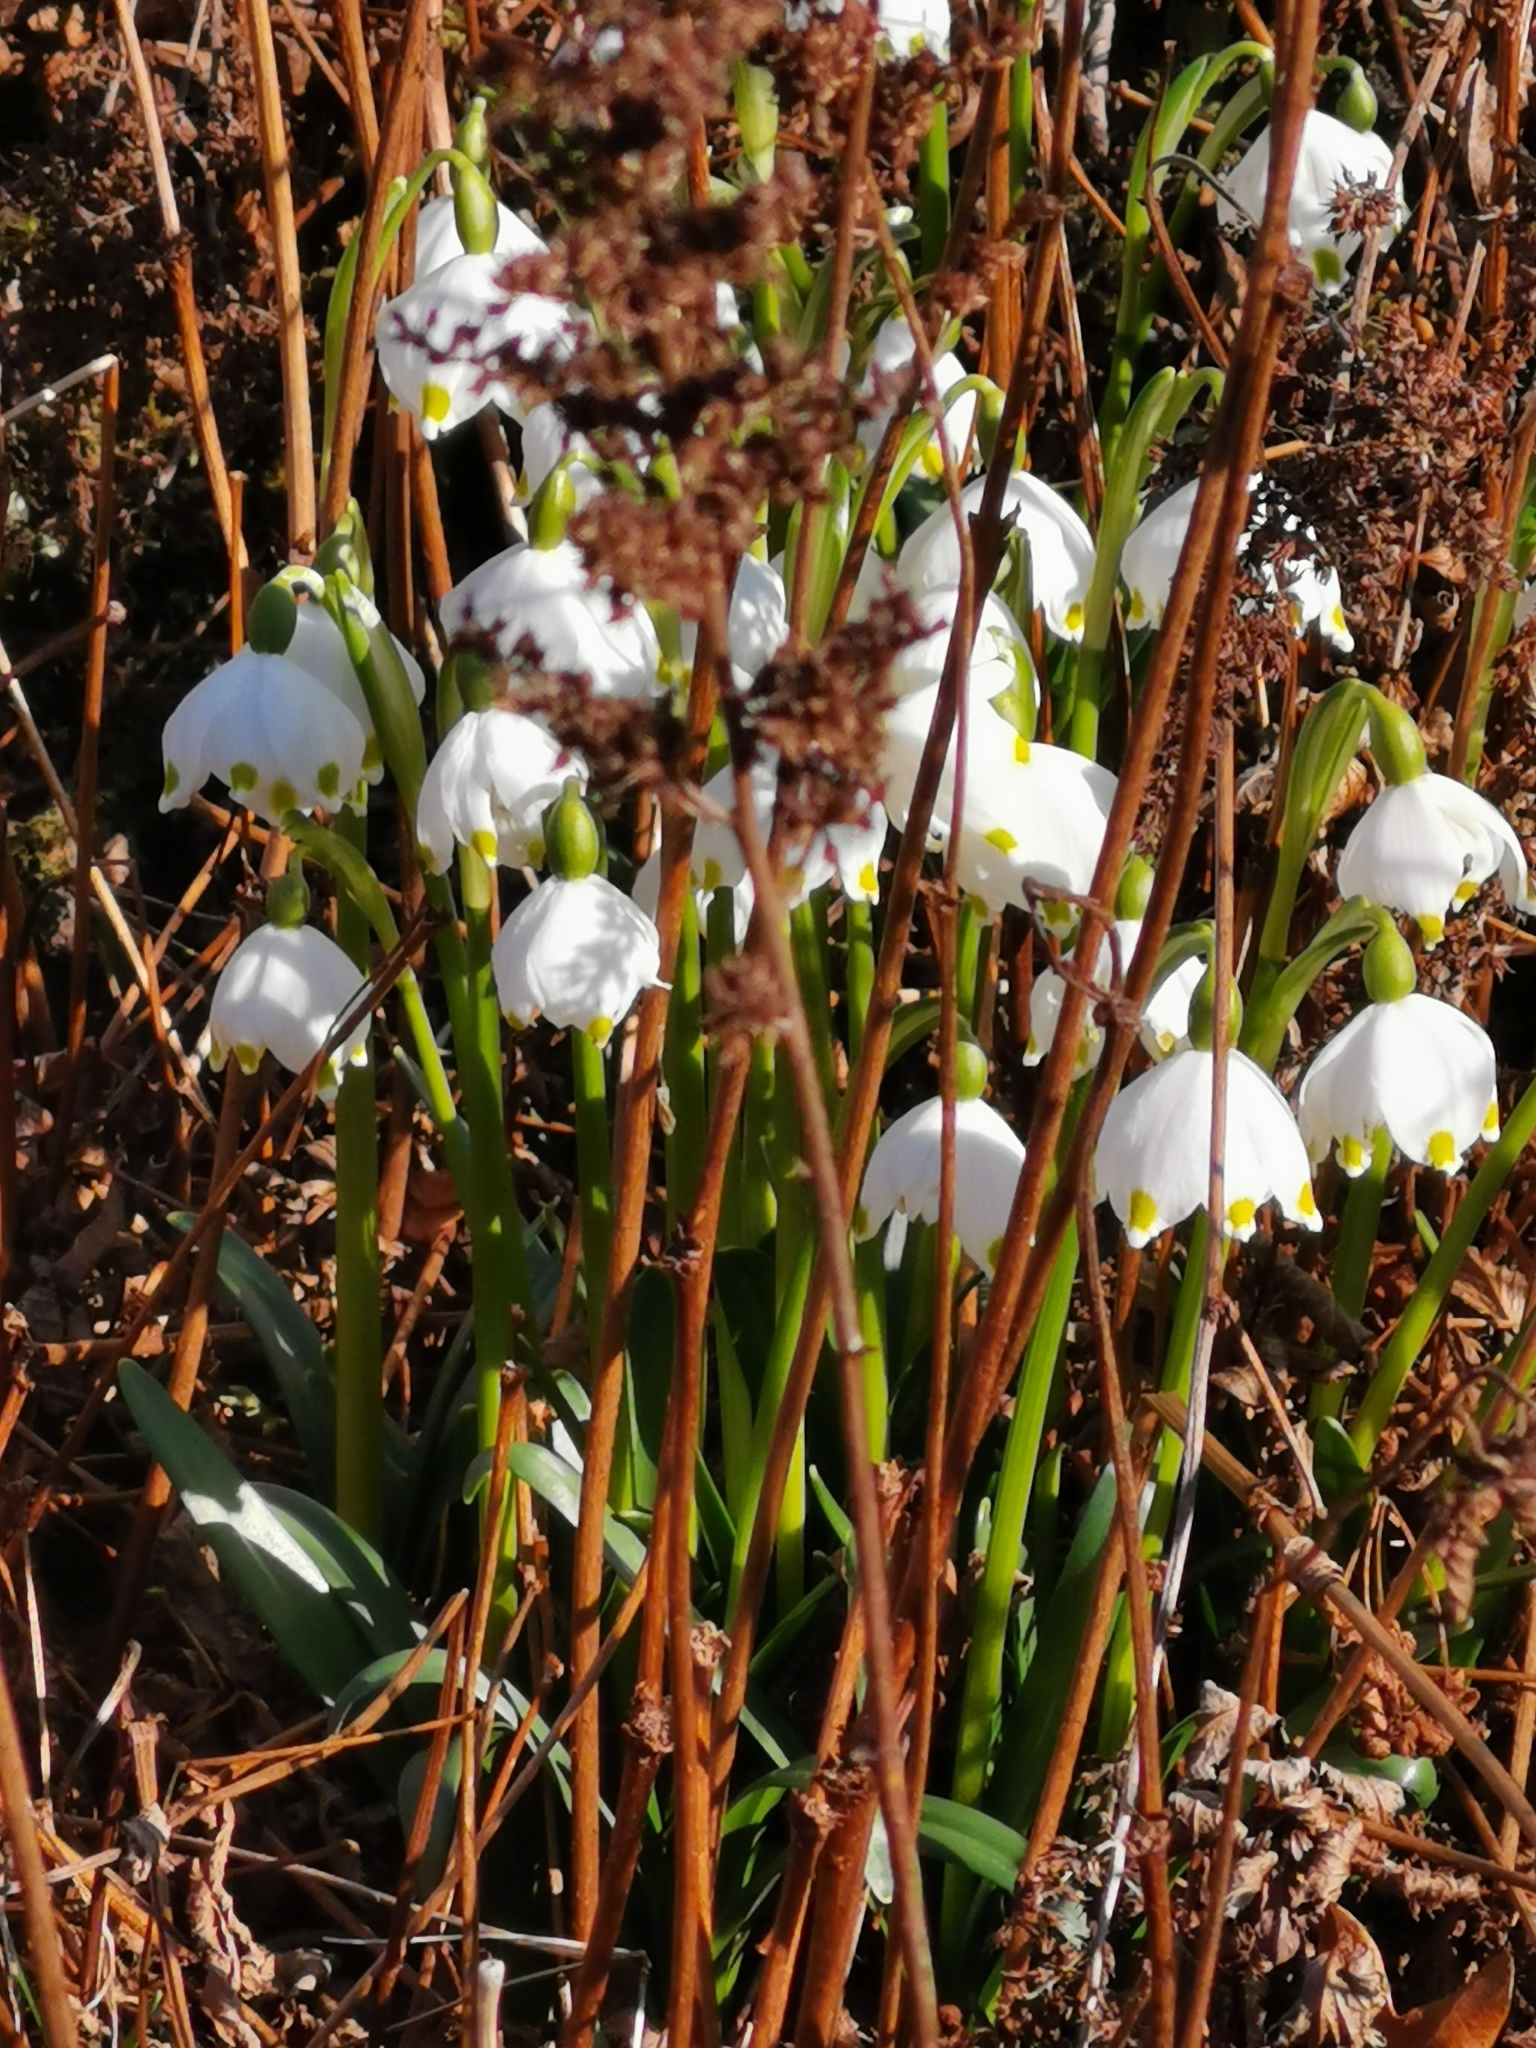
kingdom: Plantae
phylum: Tracheophyta
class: Liliopsida
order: Asparagales
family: Amaryllidaceae
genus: Leucojum
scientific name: Leucojum vernum
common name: Spring snowflake
